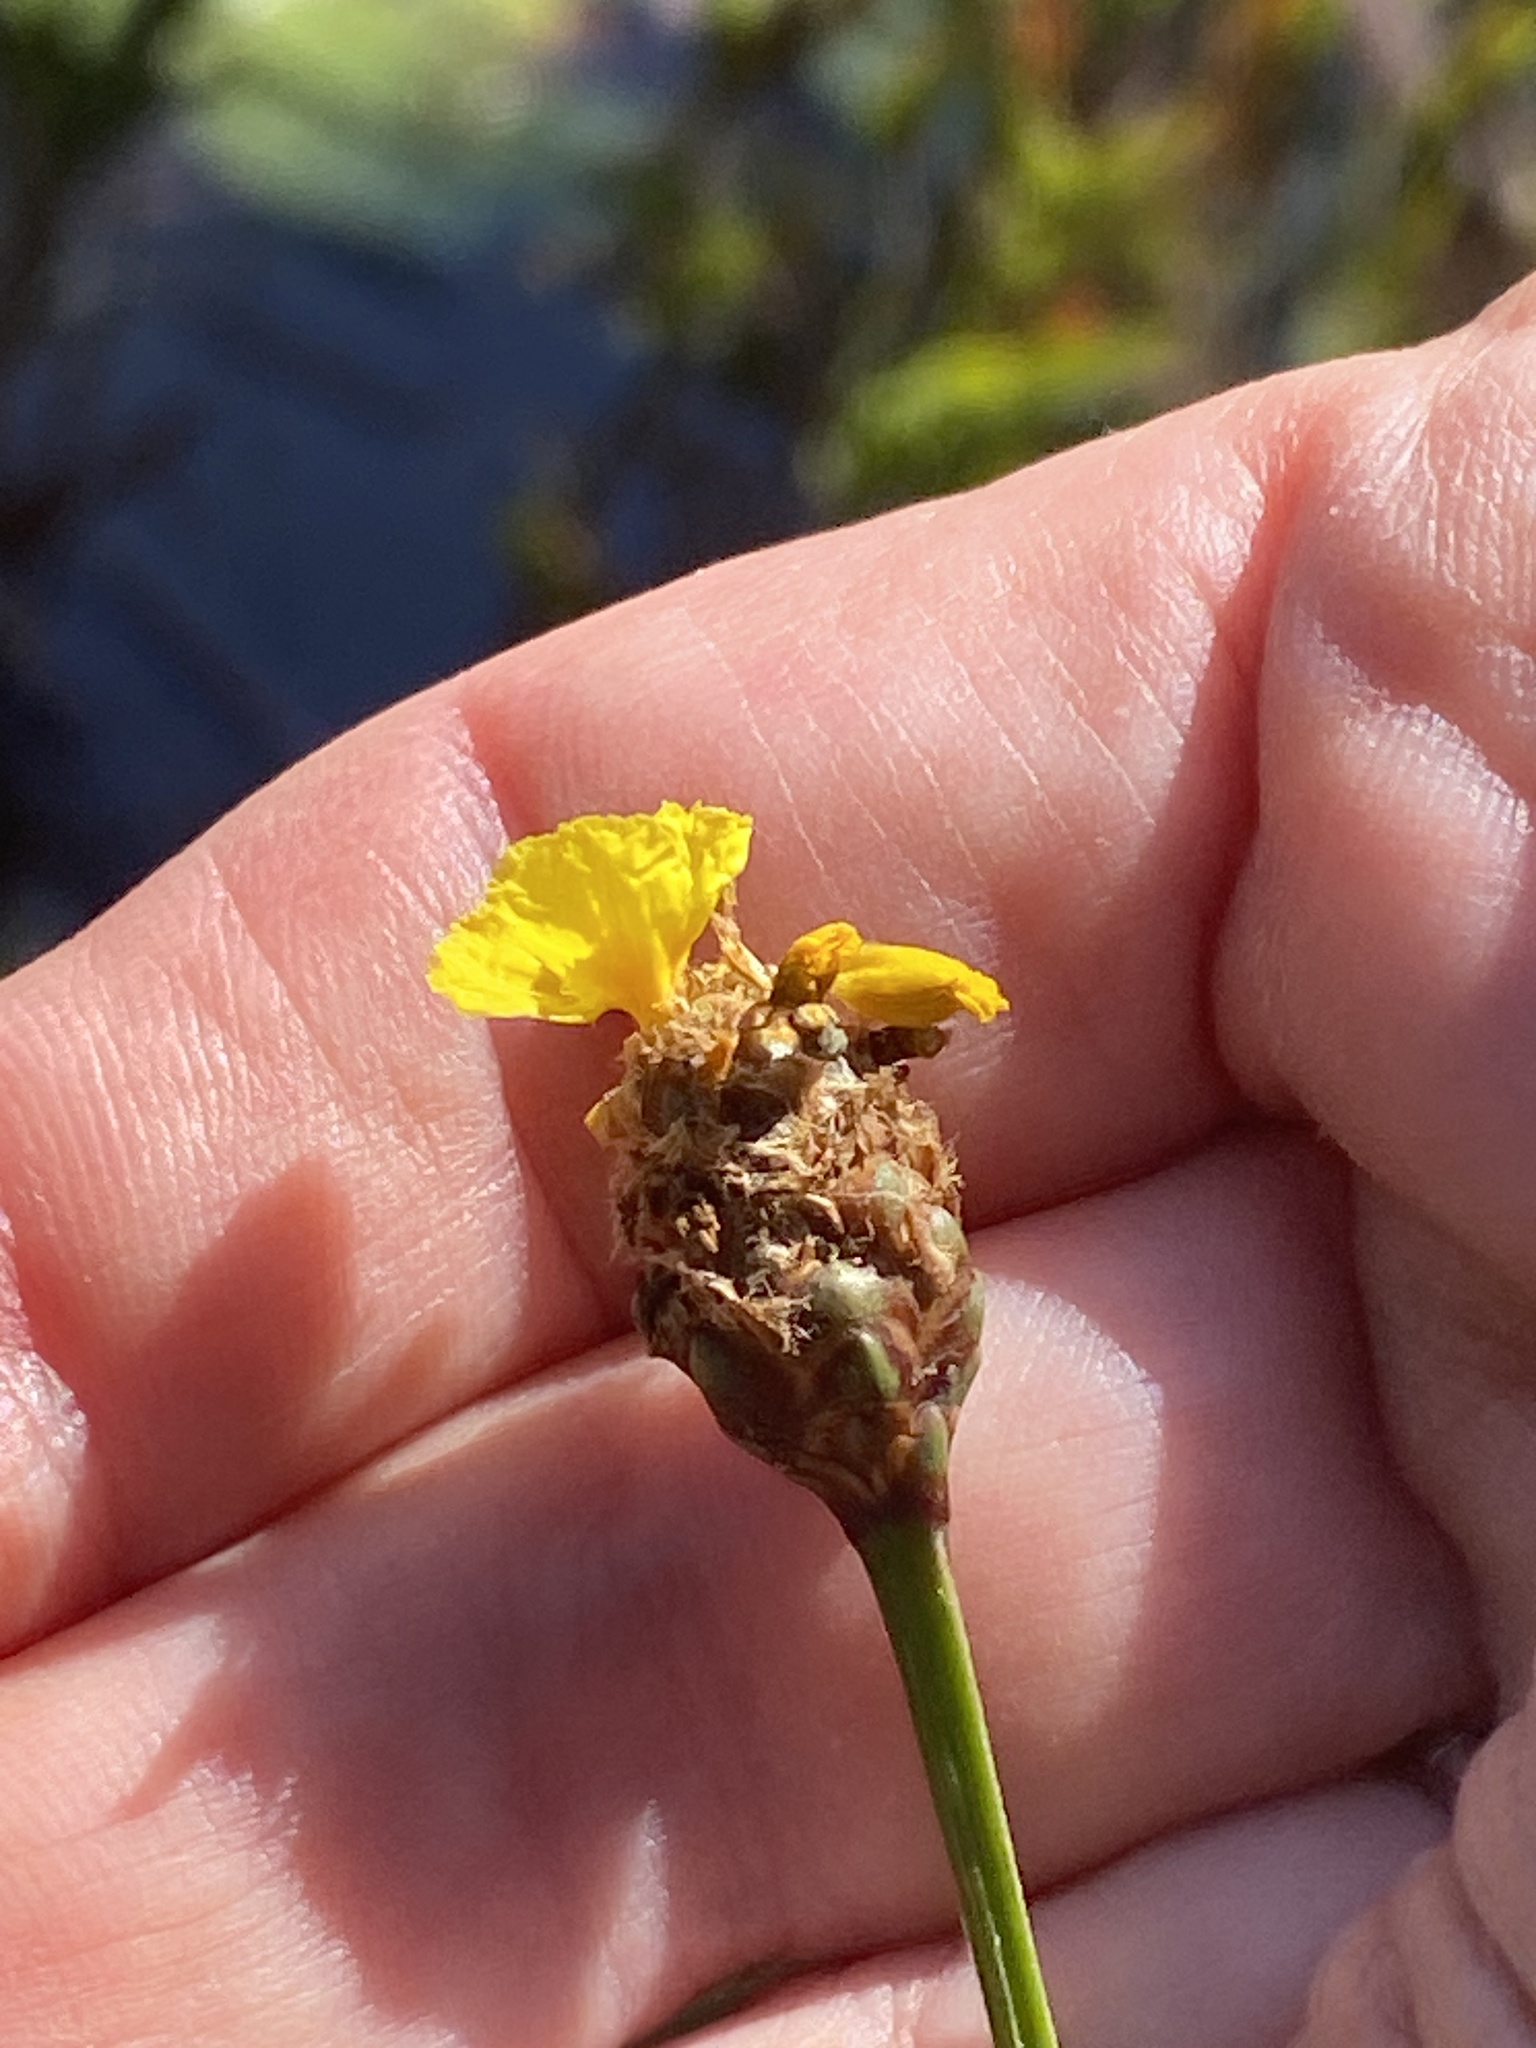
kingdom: Plantae
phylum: Tracheophyta
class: Liliopsida
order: Poales
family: Xyridaceae
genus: Xyris
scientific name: Xyris fimbriata
